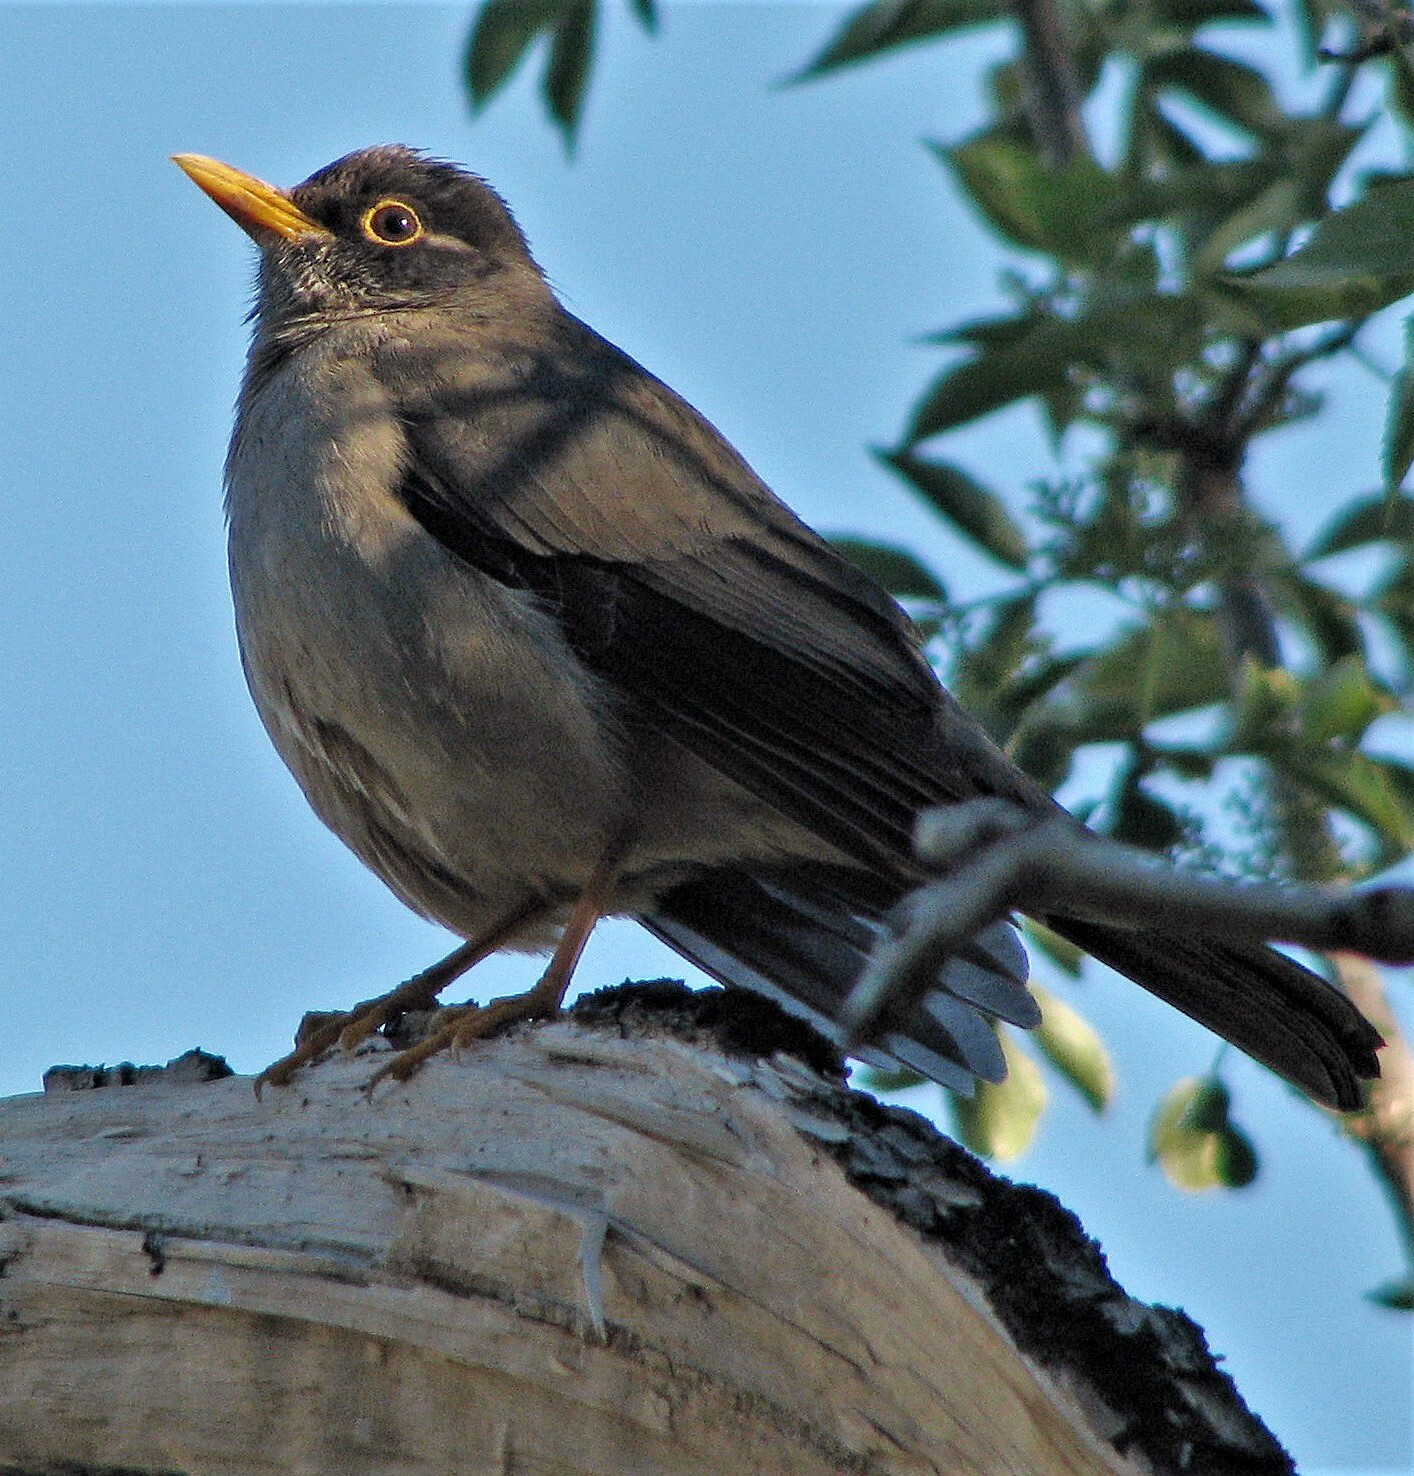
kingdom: Animalia
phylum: Chordata
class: Aves
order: Passeriformes
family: Turdidae
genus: Turdus
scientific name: Turdus falcklandii
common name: Austral thrush
